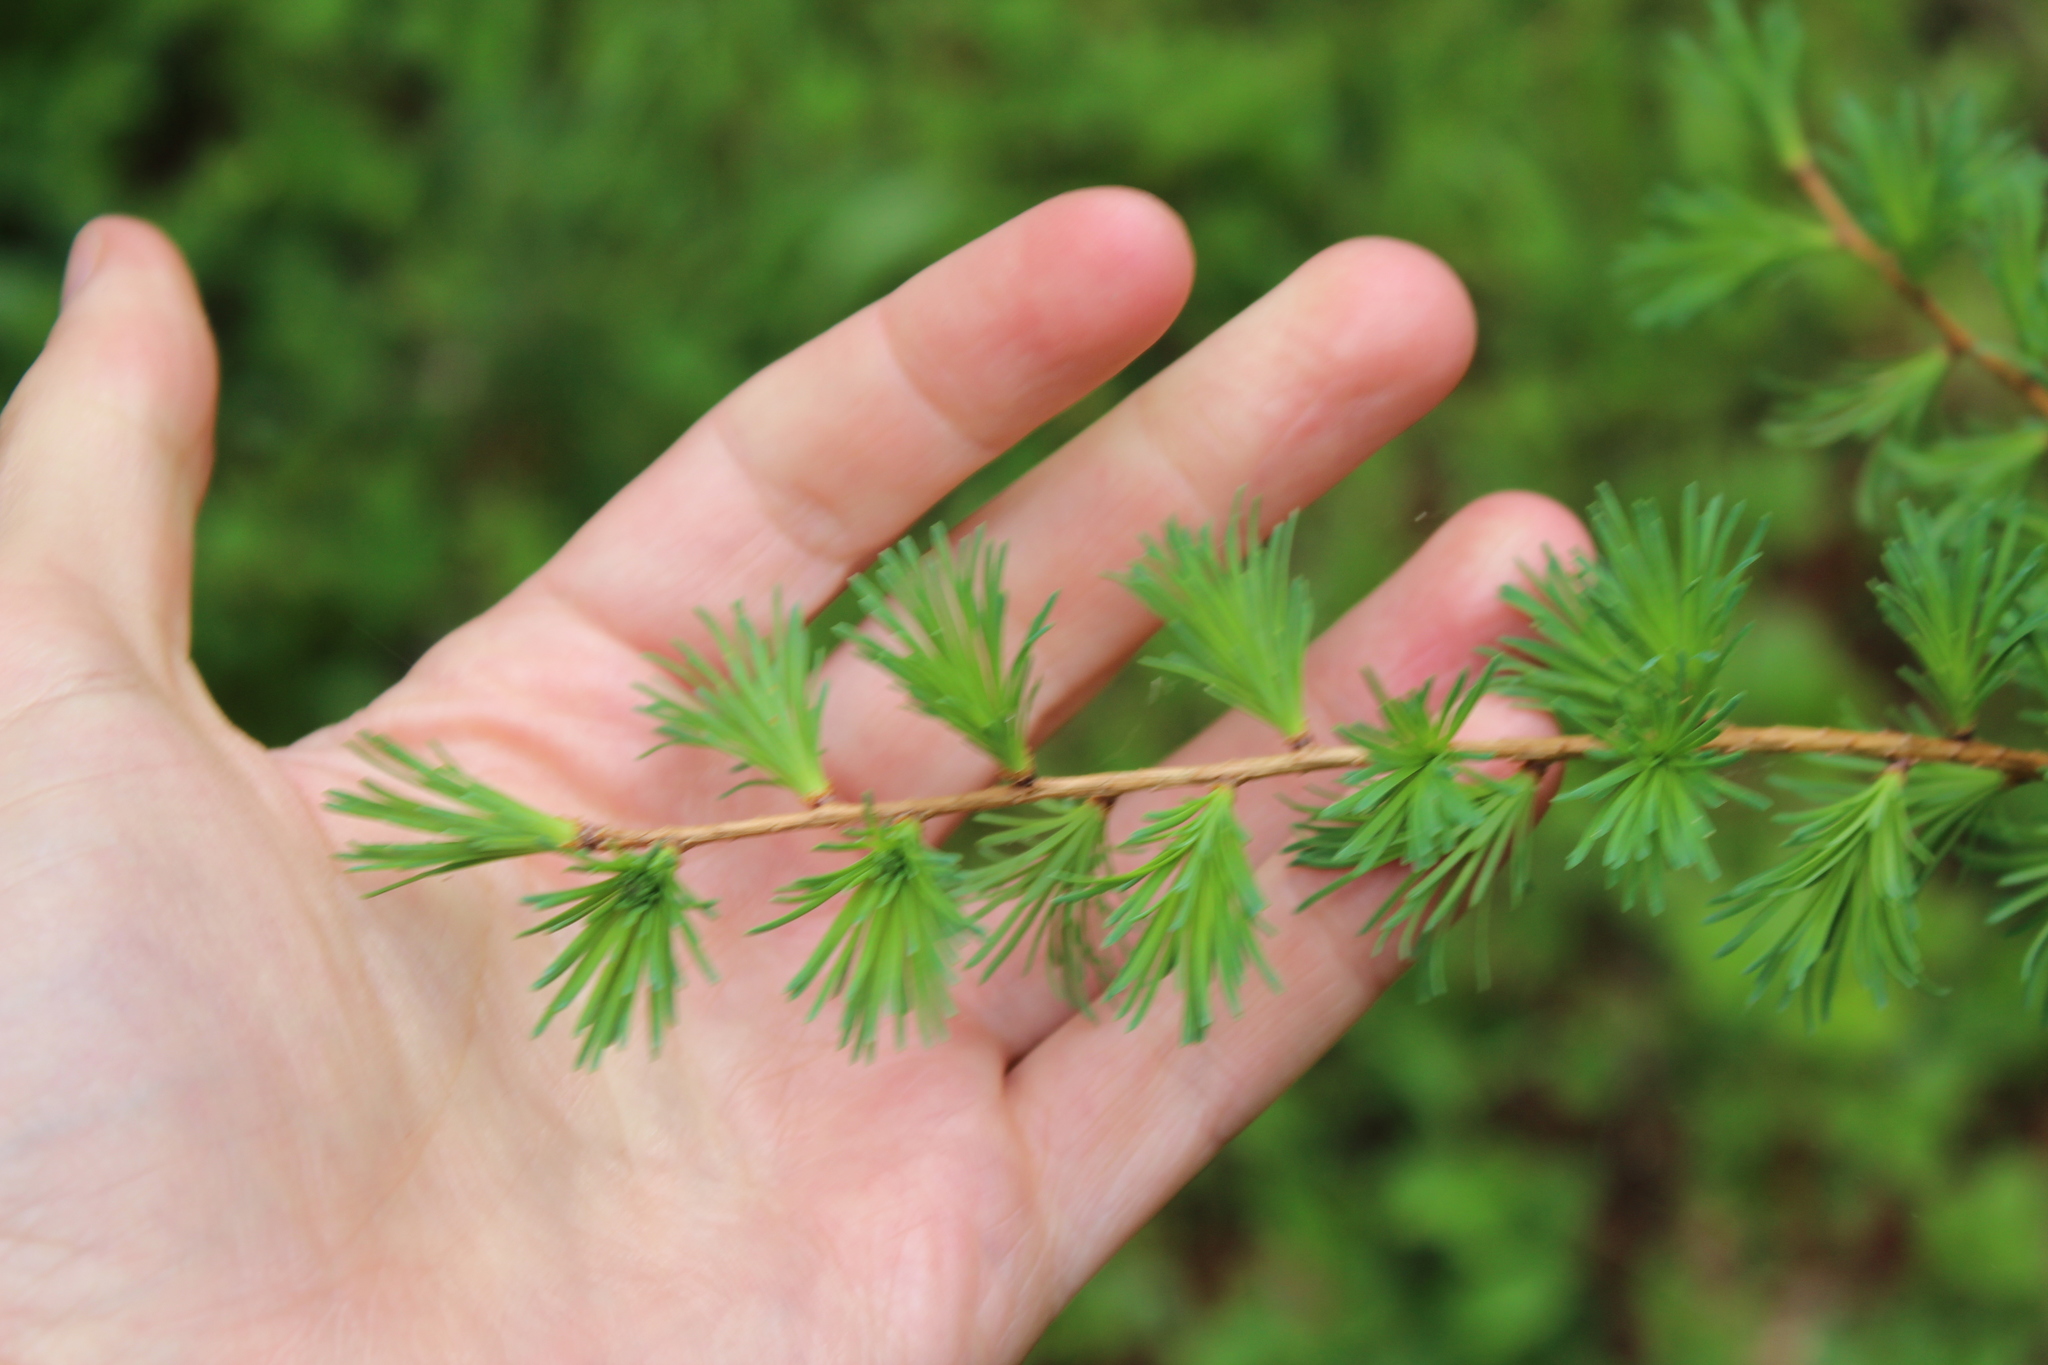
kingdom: Plantae
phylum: Tracheophyta
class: Pinopsida
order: Pinales
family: Pinaceae
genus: Larix
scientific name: Larix laricina
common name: American larch
